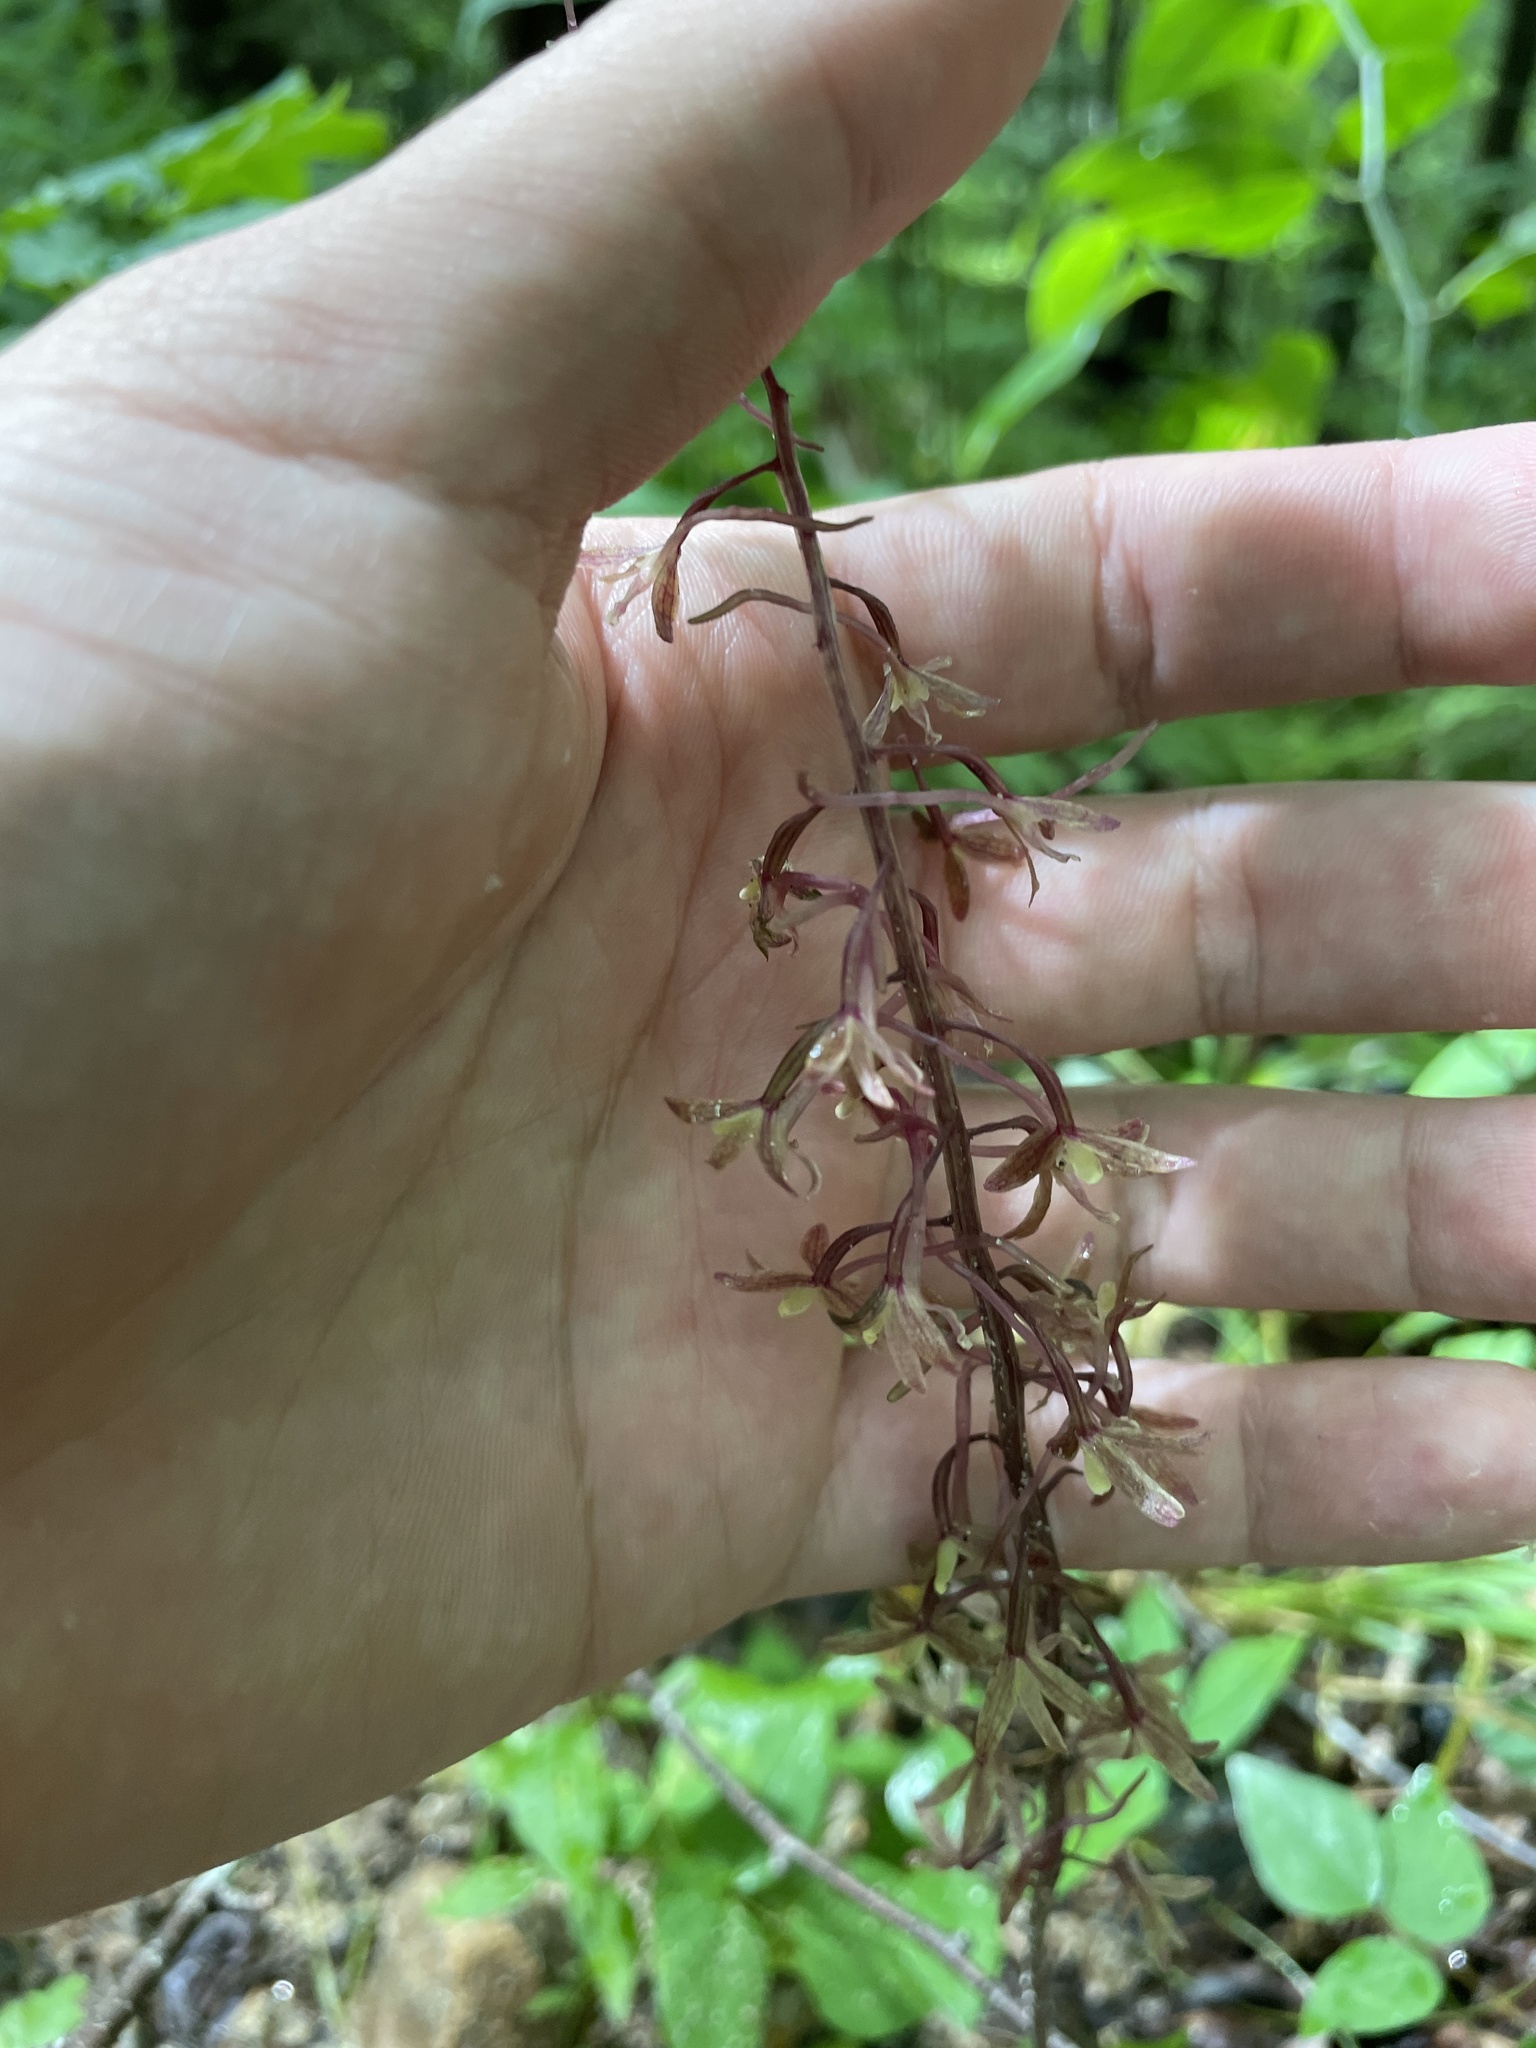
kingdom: Plantae
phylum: Tracheophyta
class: Liliopsida
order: Asparagales
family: Orchidaceae
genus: Tipularia
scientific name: Tipularia discolor
